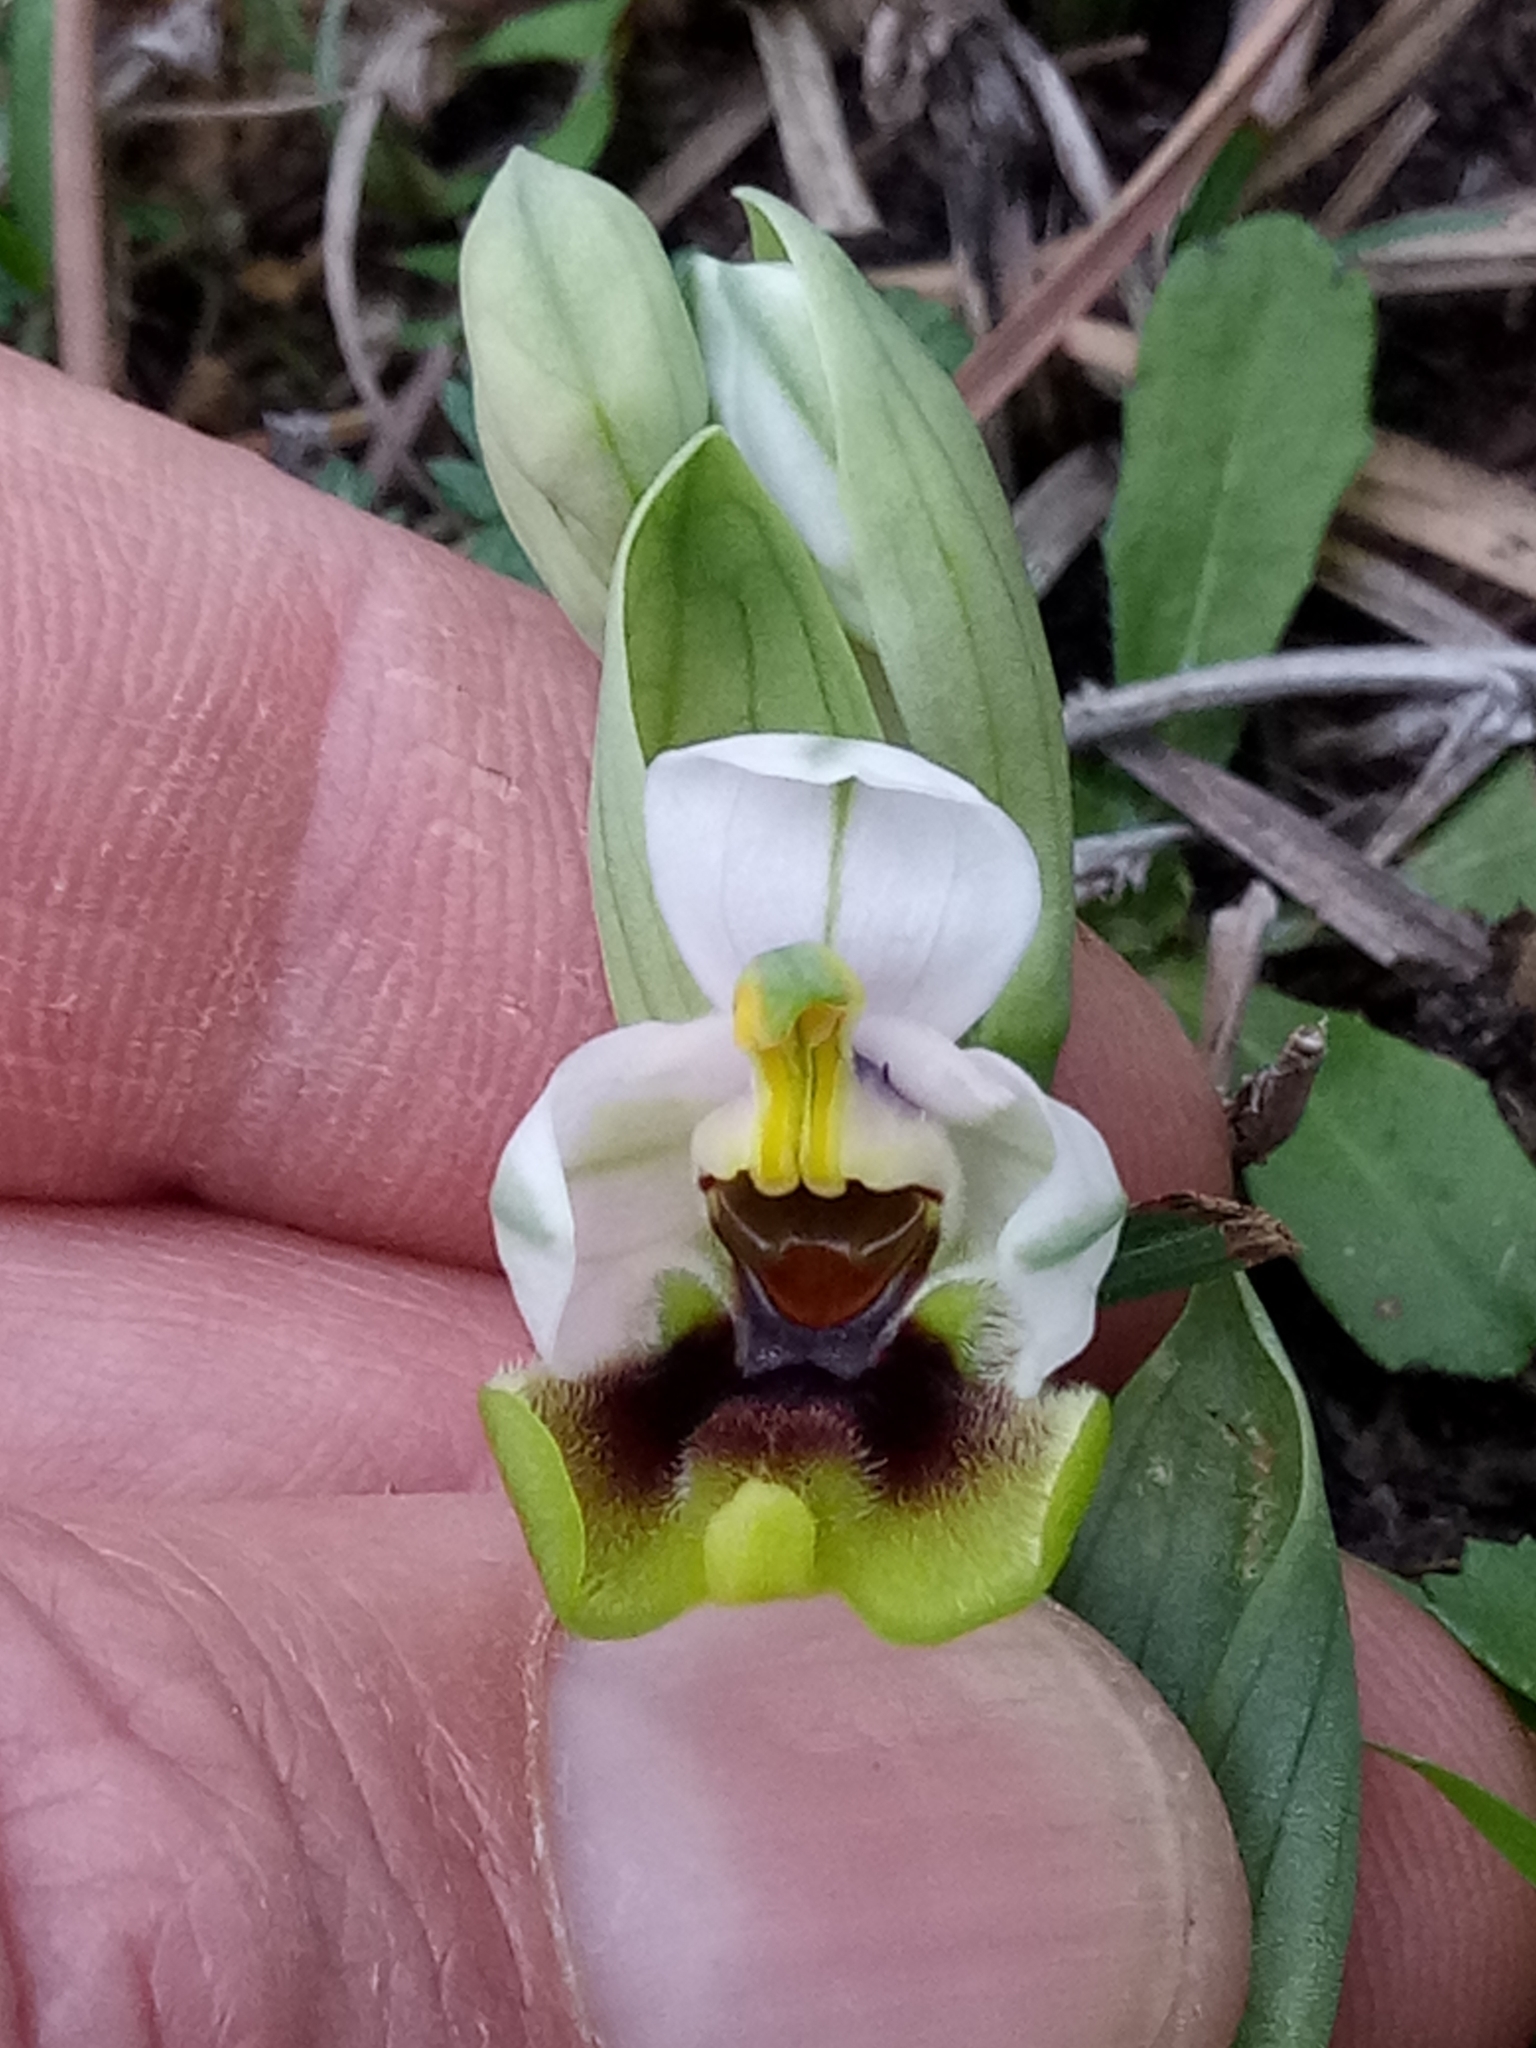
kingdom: Plantae
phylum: Tracheophyta
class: Liliopsida
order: Asparagales
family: Orchidaceae
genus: Ophrys
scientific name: Ophrys tenthredinifera
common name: Sawfly orchid
